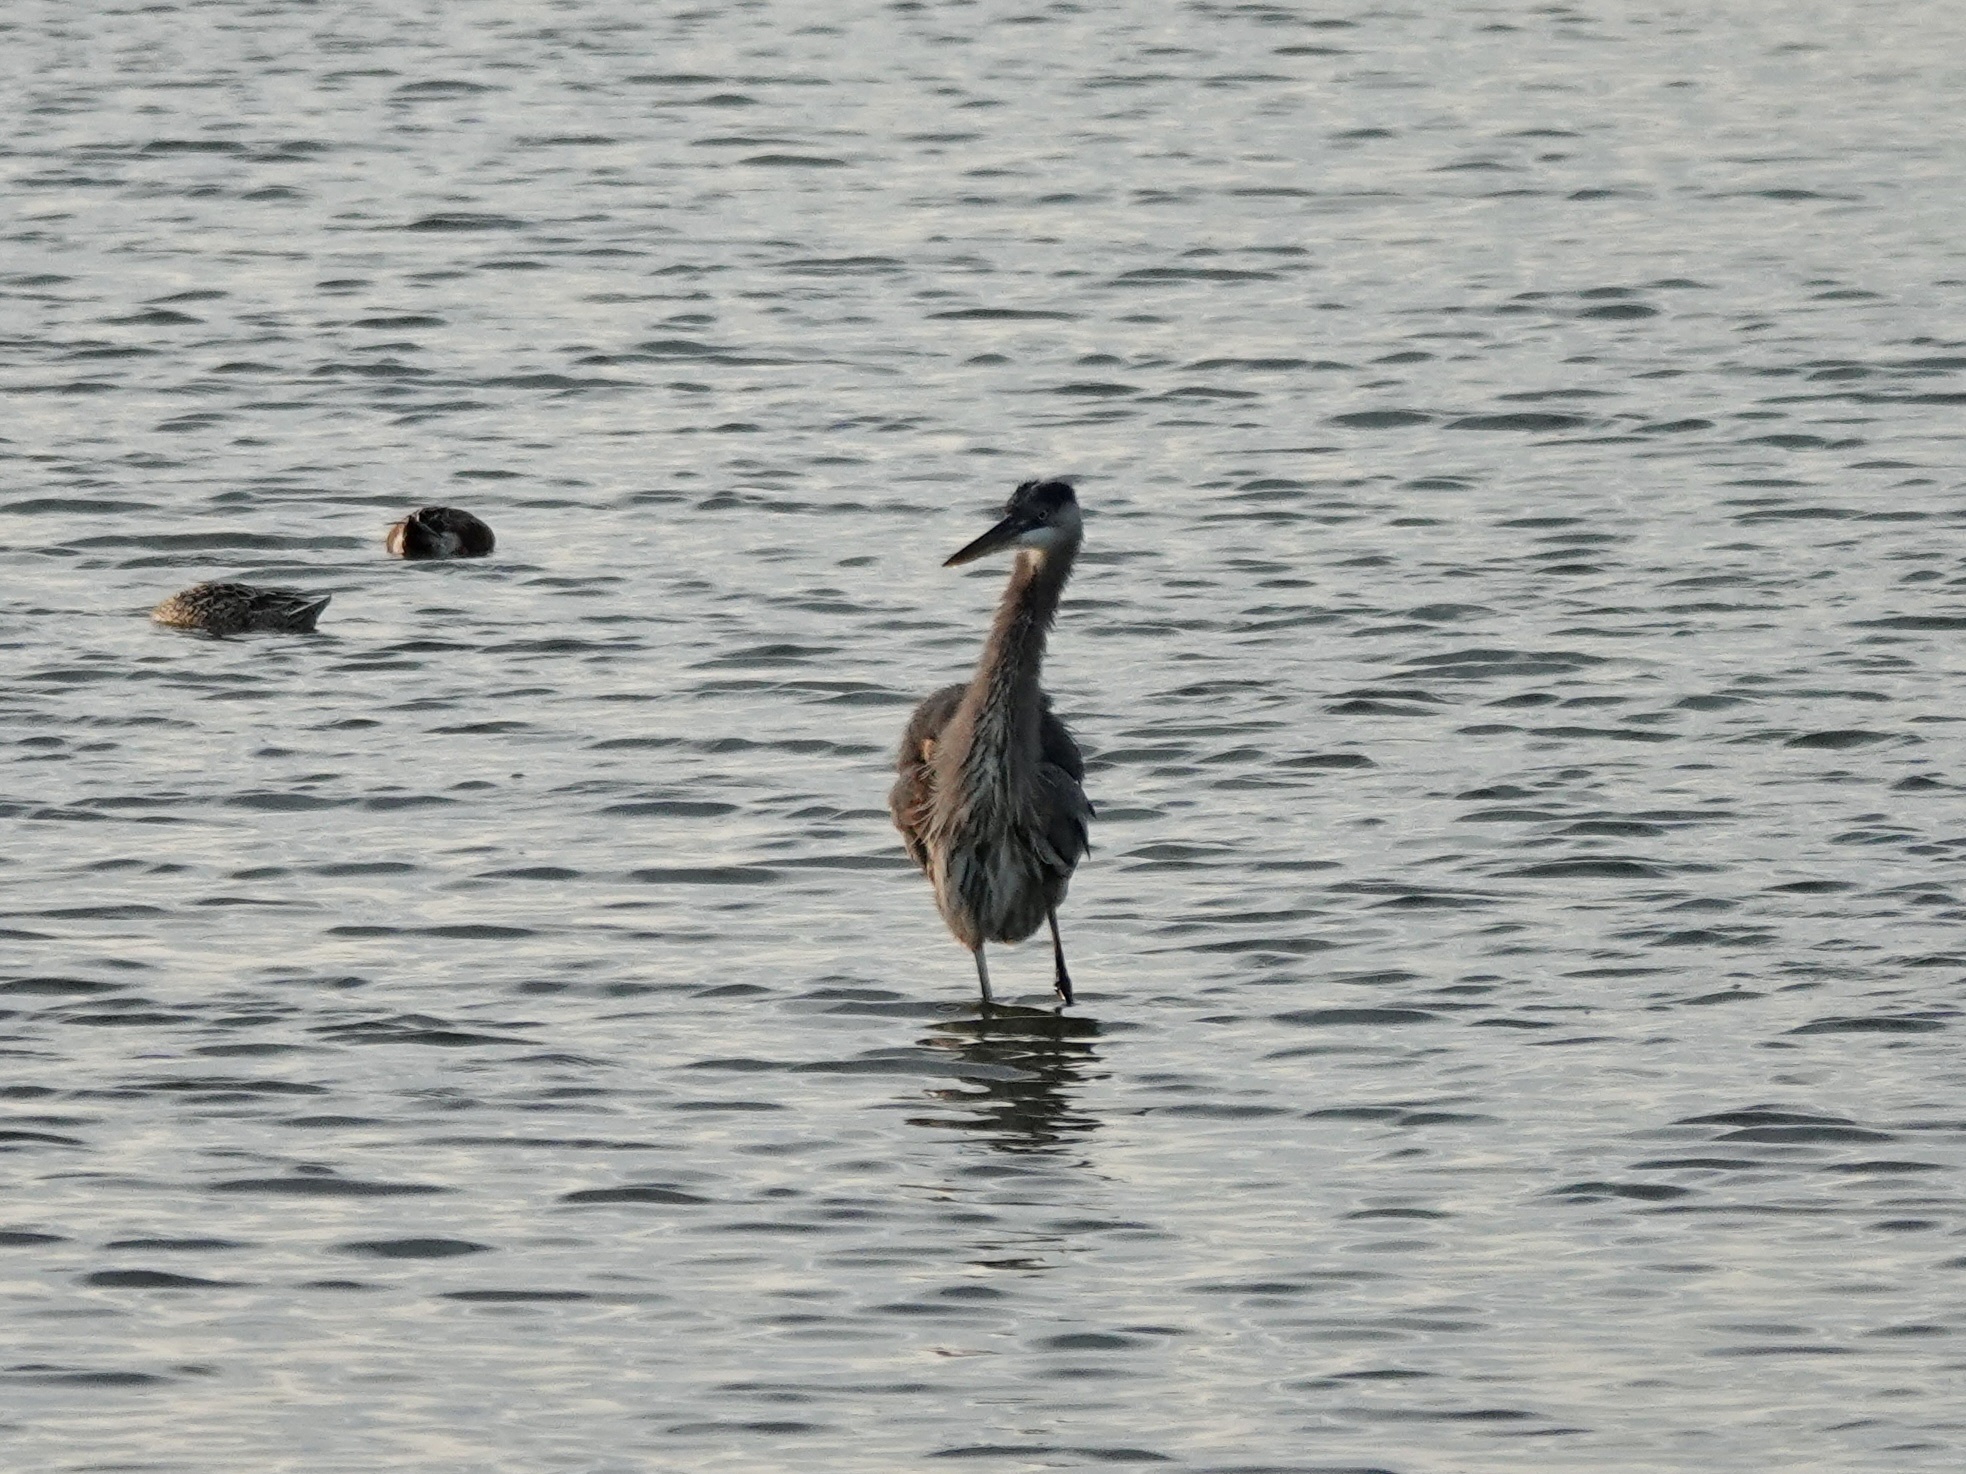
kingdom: Animalia
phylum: Chordata
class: Aves
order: Pelecaniformes
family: Ardeidae
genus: Ardea
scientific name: Ardea herodias
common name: Great blue heron
